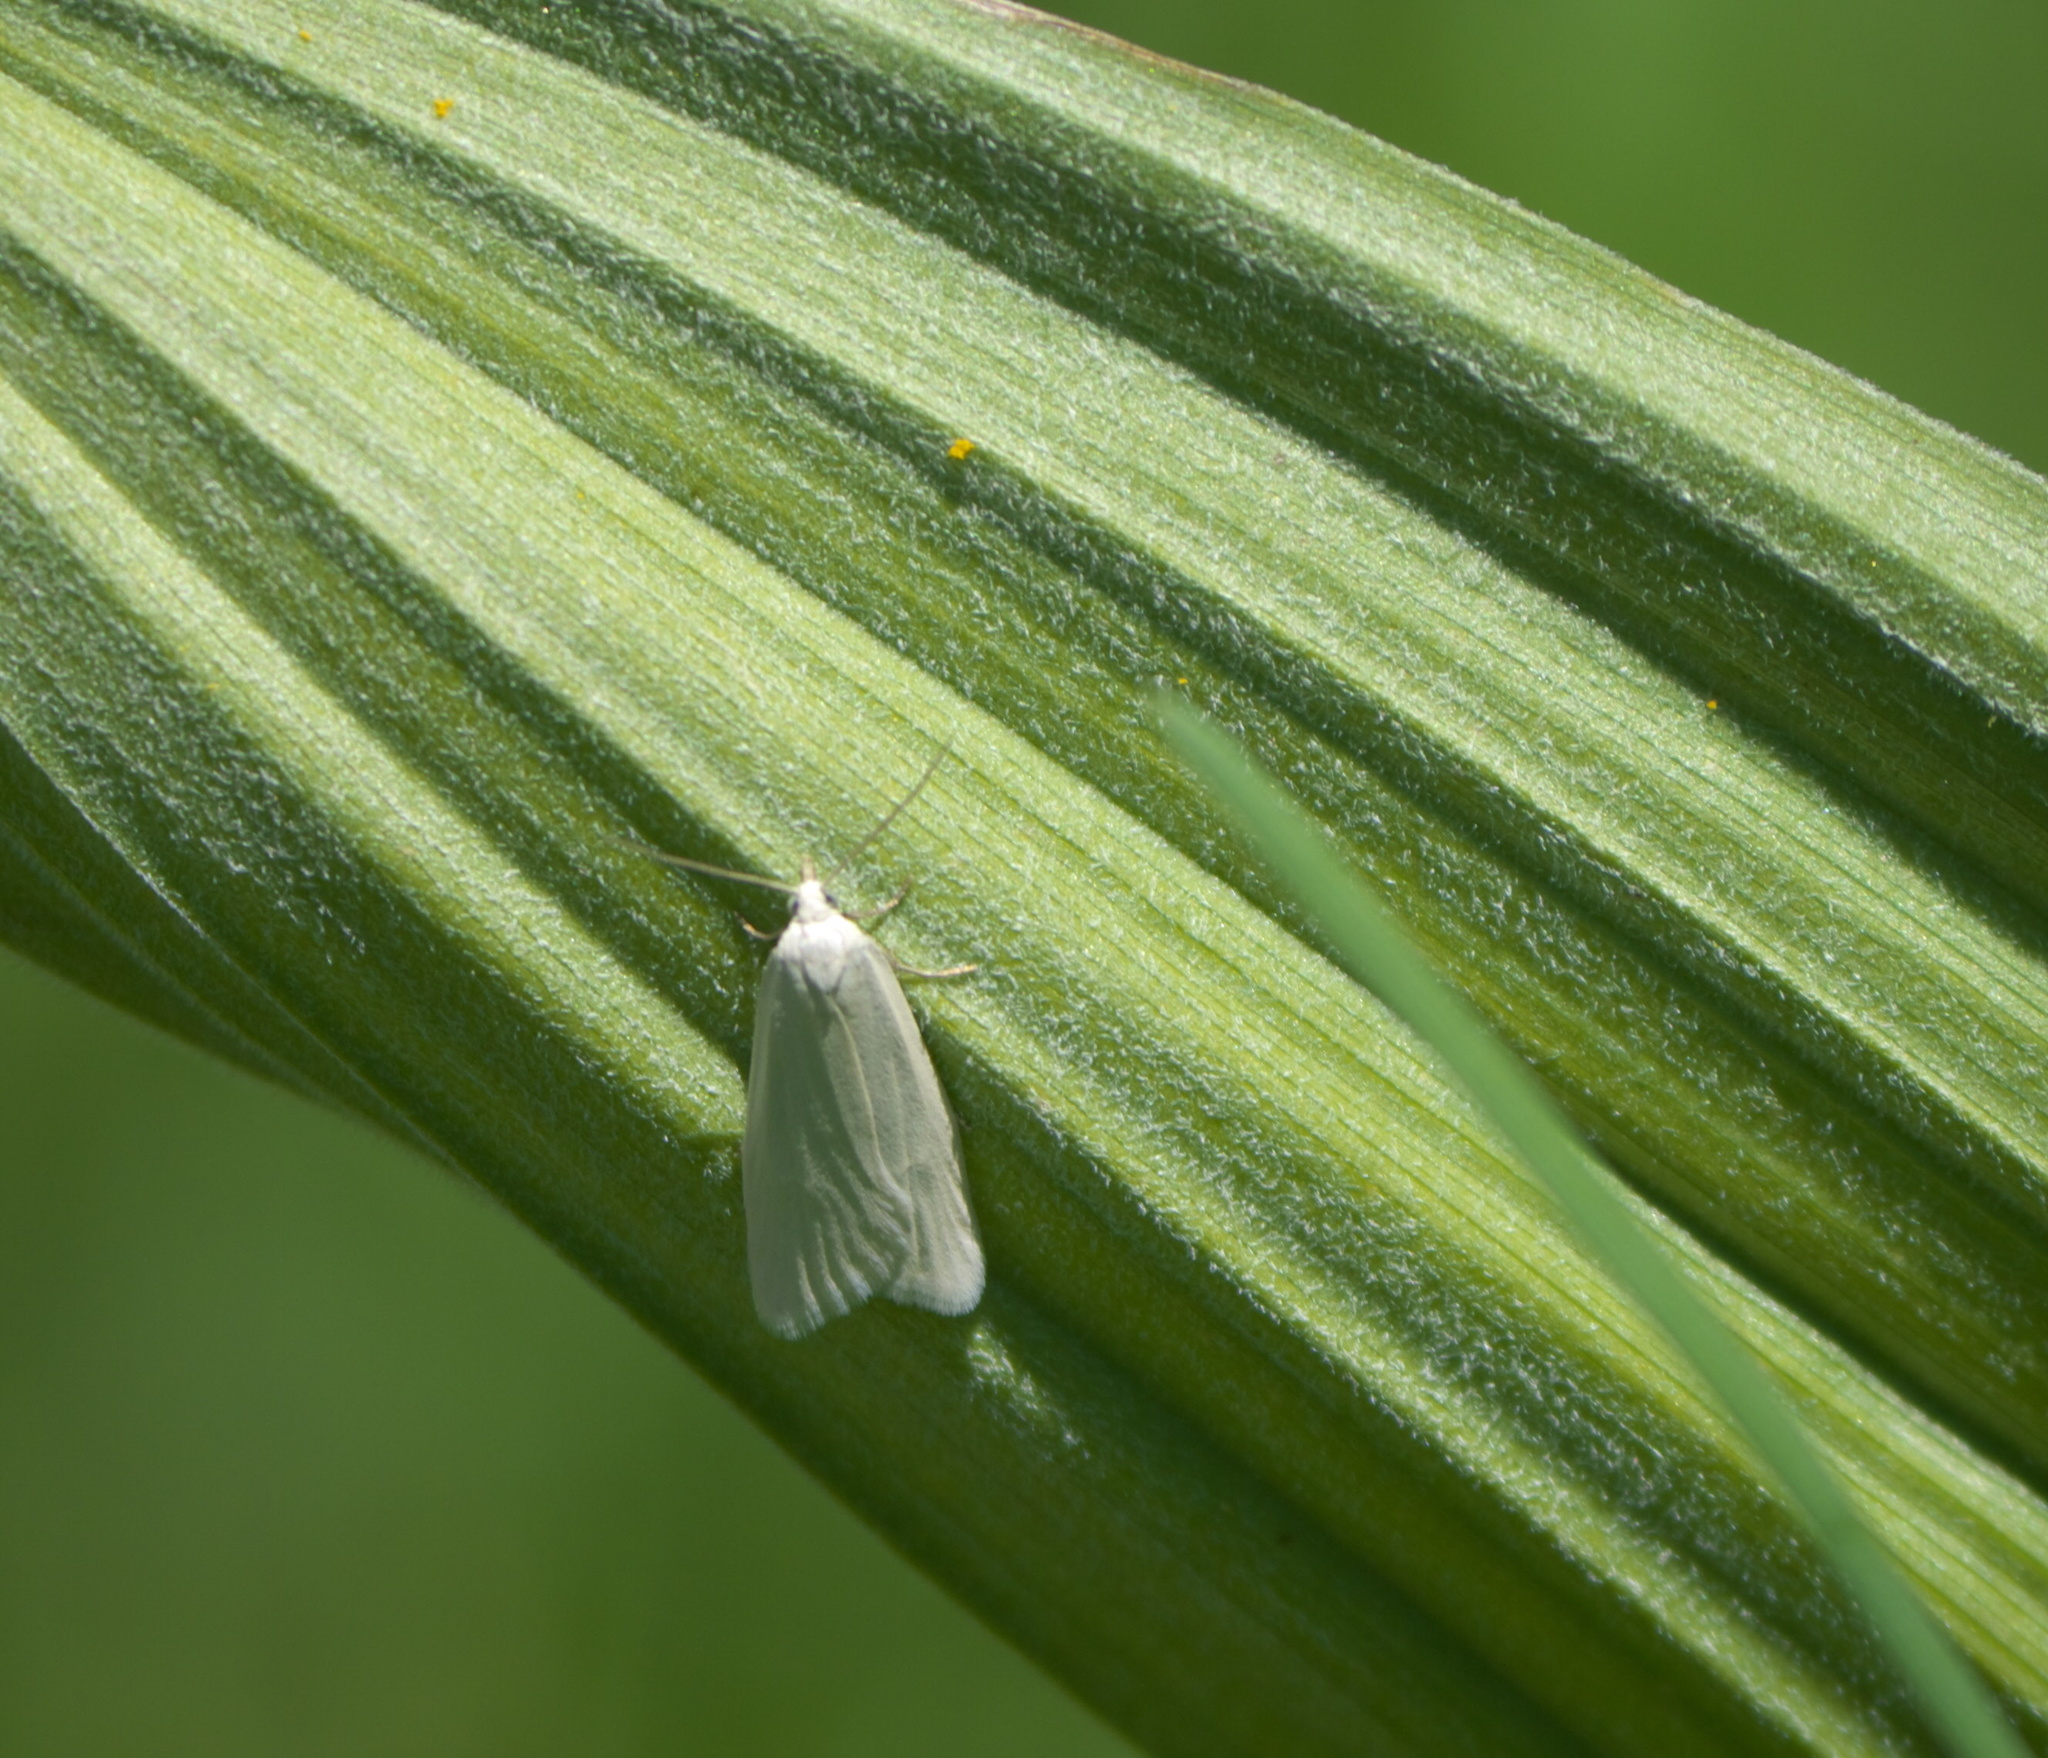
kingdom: Animalia
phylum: Arthropoda
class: Insecta
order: Lepidoptera
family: Tortricidae
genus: Eana
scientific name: Eana georgiella
